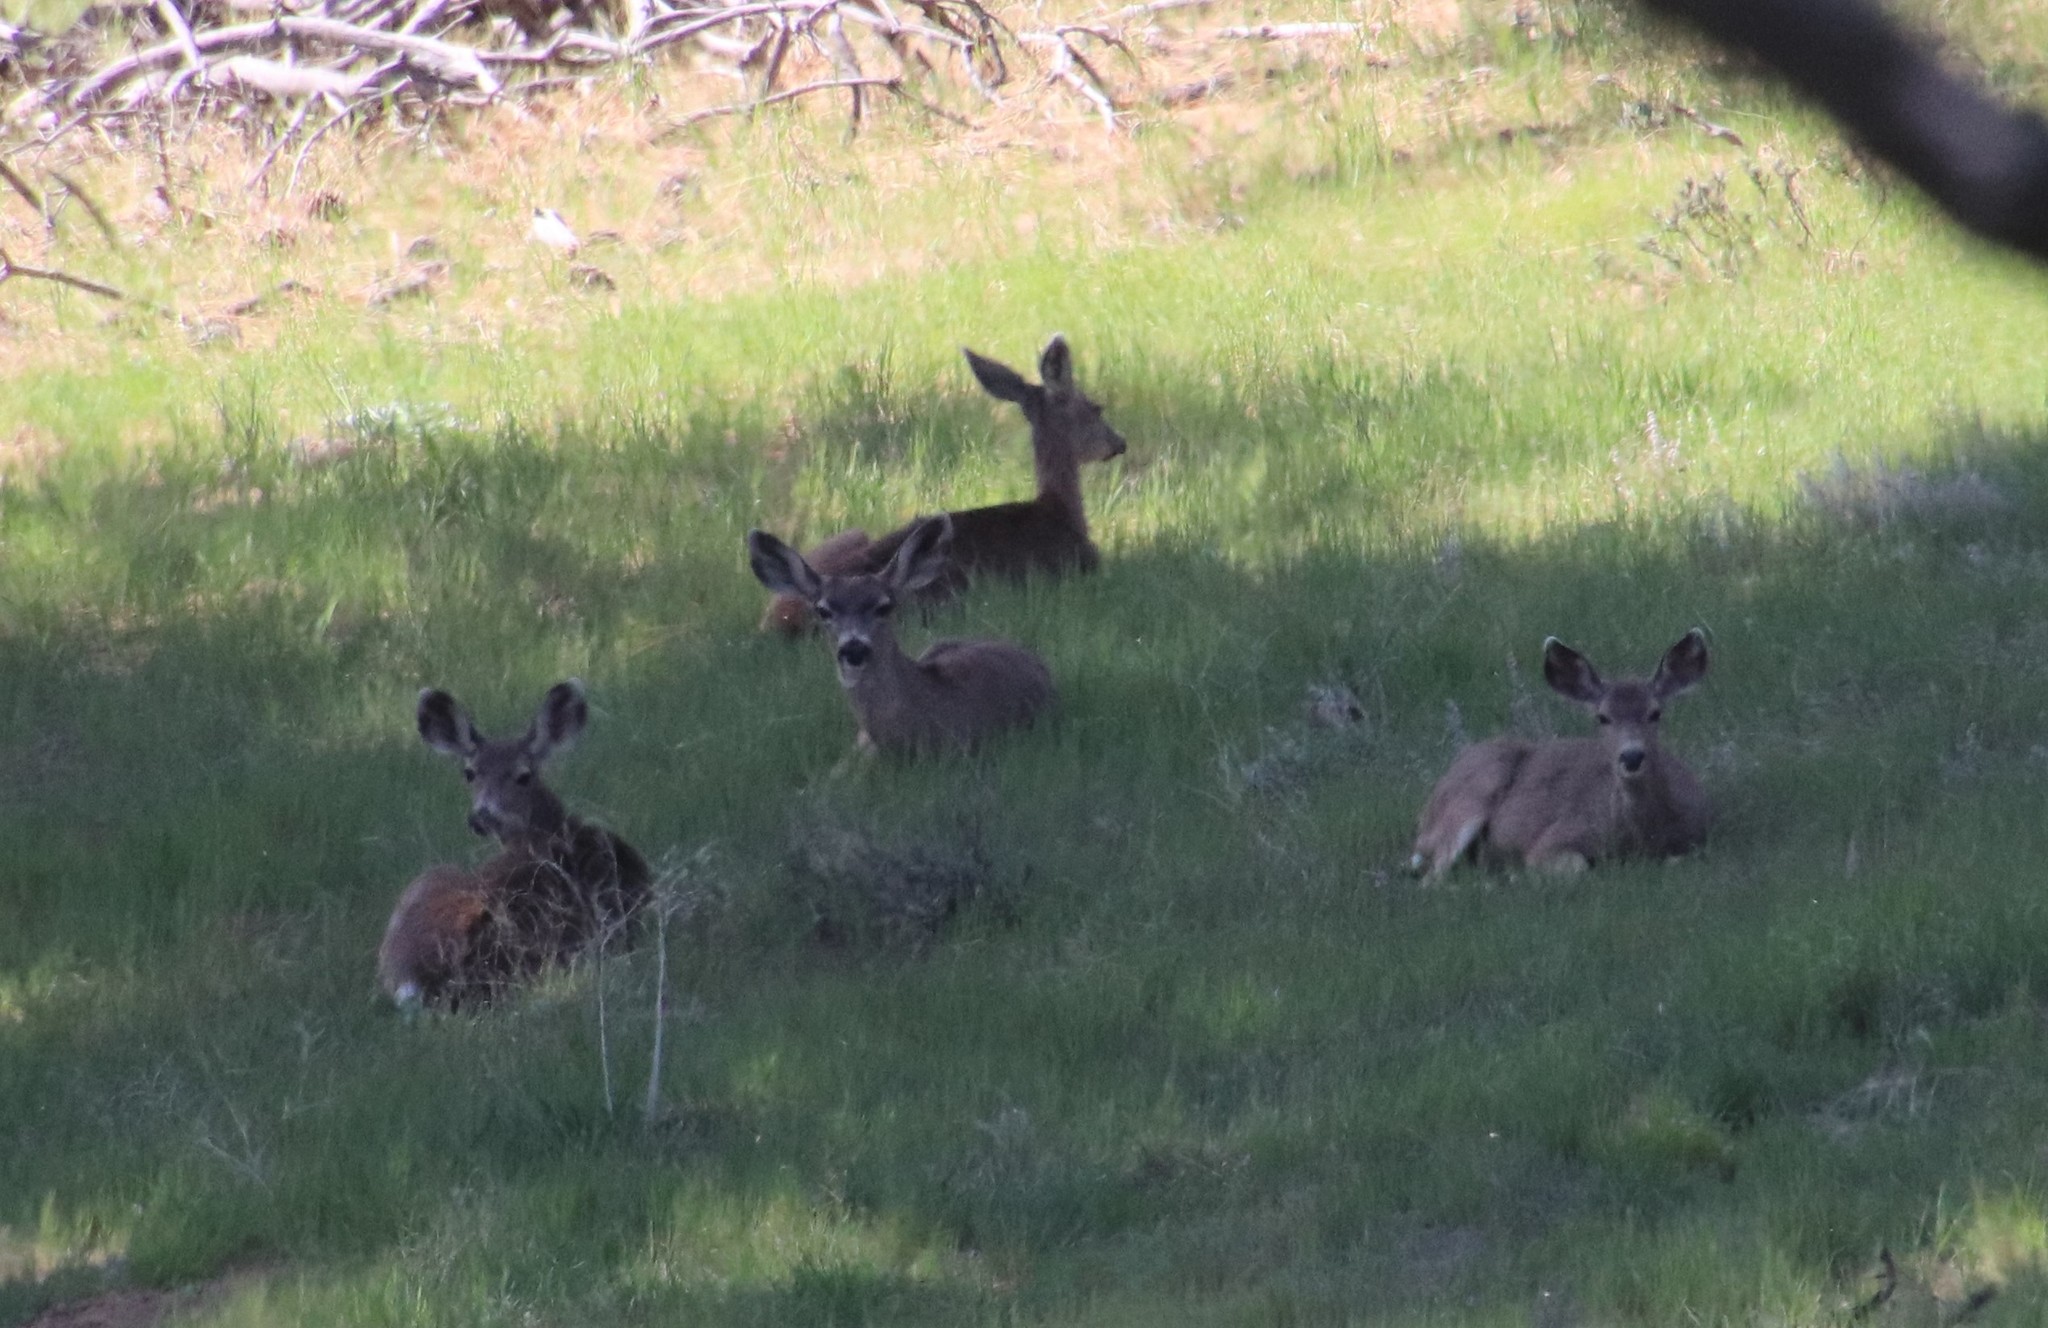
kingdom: Animalia
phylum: Chordata
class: Mammalia
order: Artiodactyla
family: Cervidae
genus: Odocoileus
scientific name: Odocoileus hemionus
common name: Mule deer
